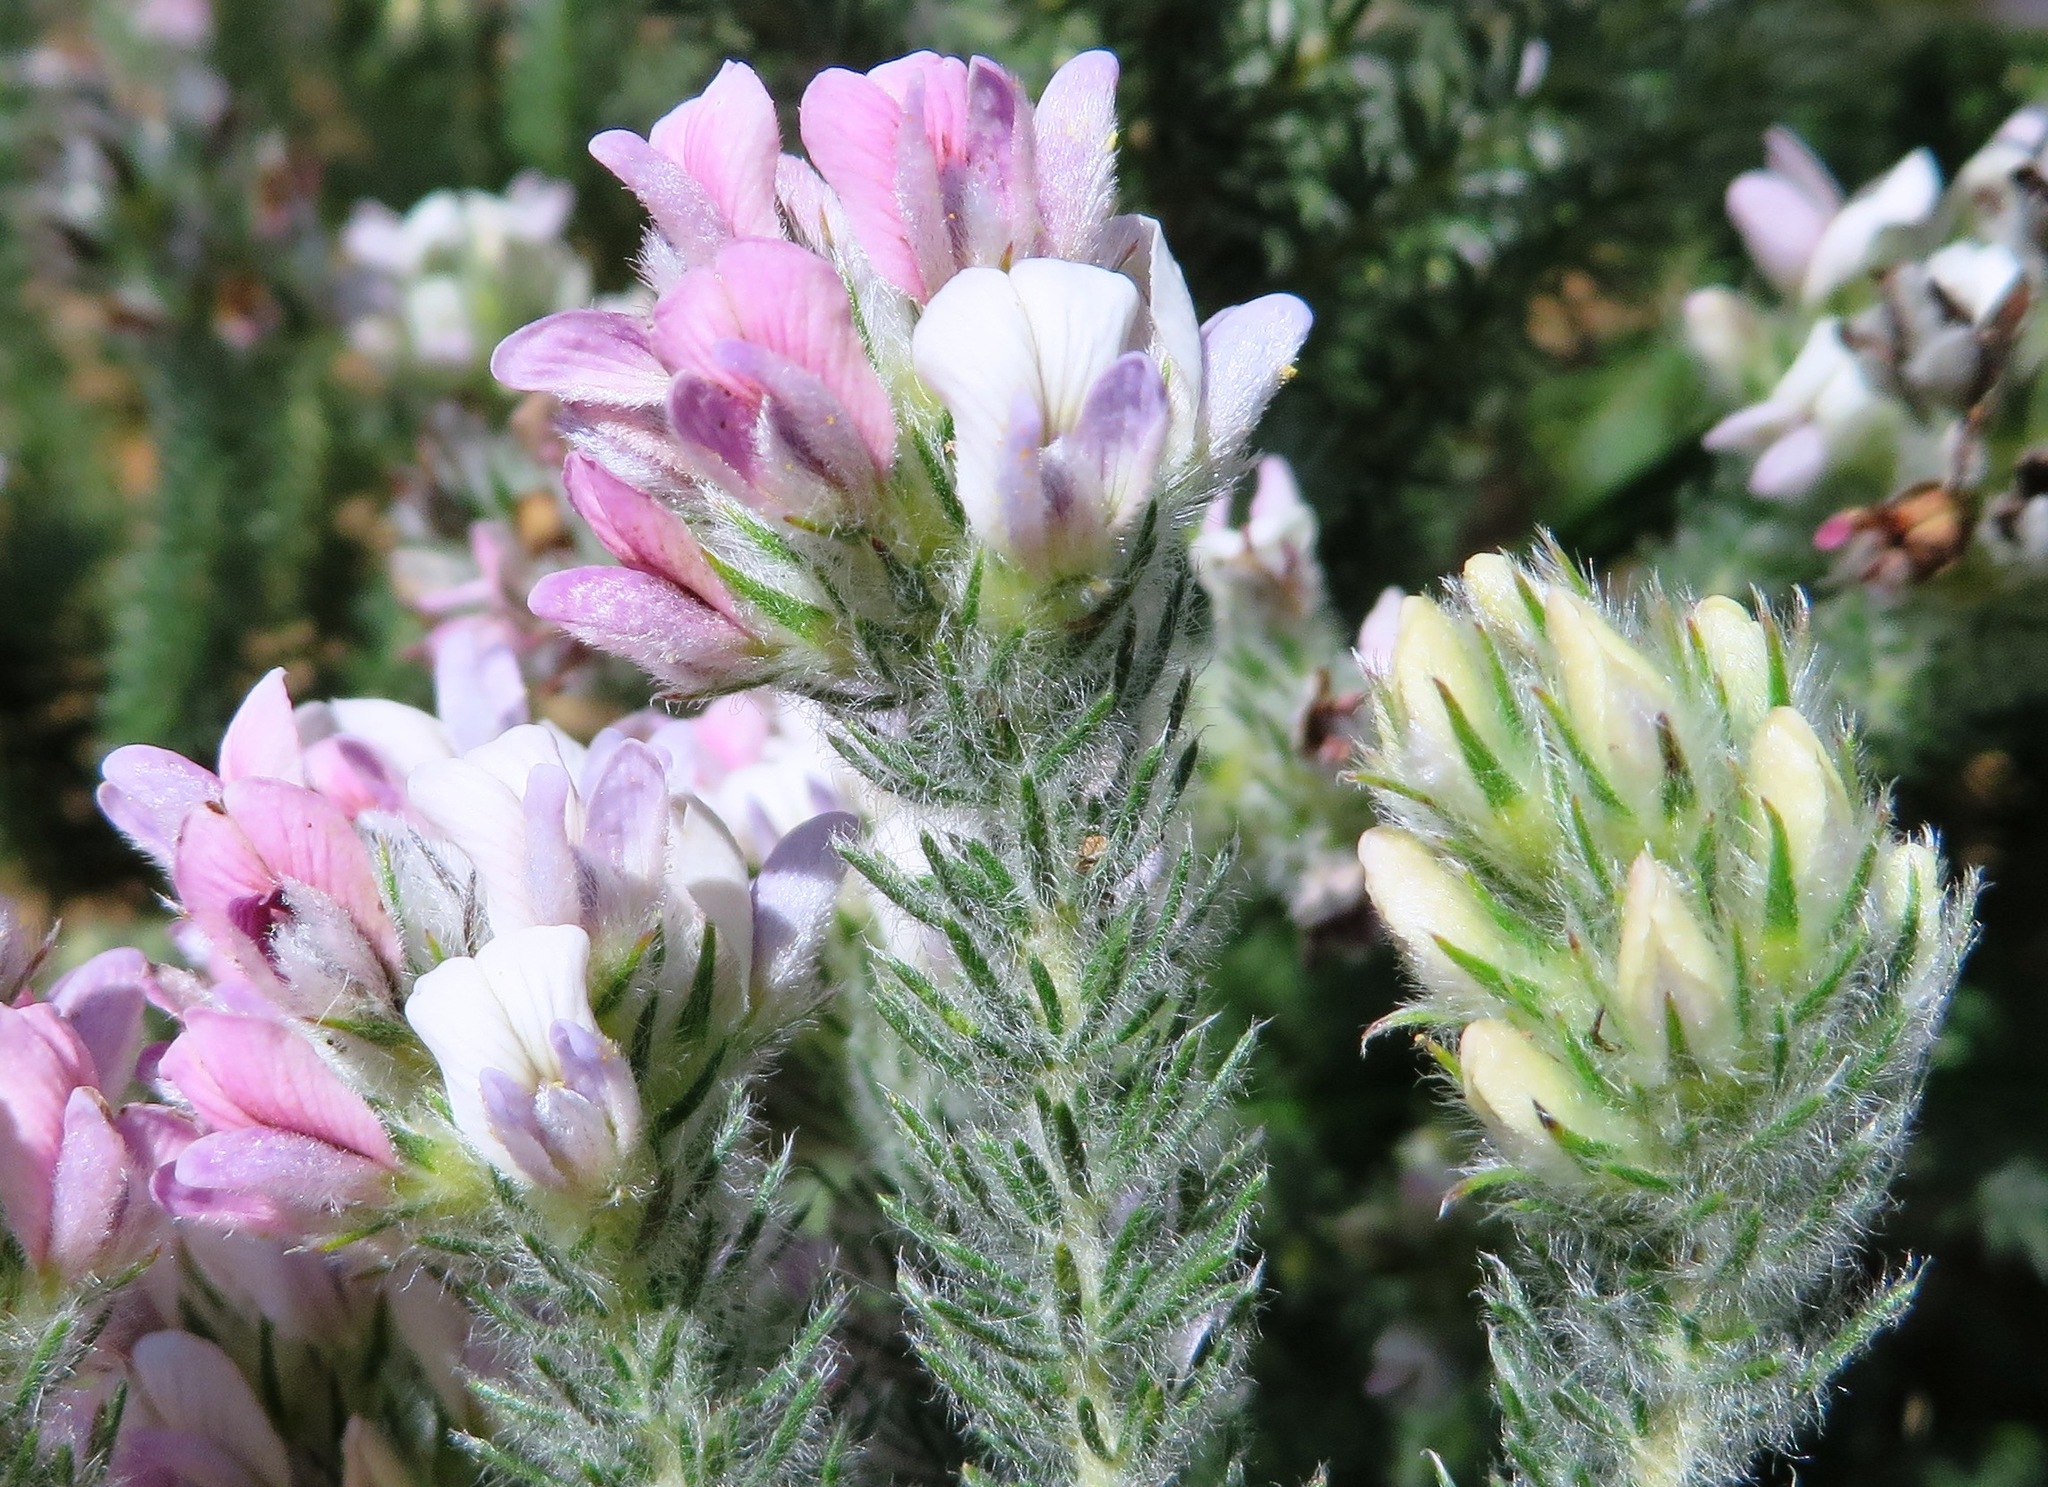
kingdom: Plantae
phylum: Tracheophyta
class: Magnoliopsida
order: Fabales
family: Fabaceae
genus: Aspalathus
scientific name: Aspalathus cephalotes
